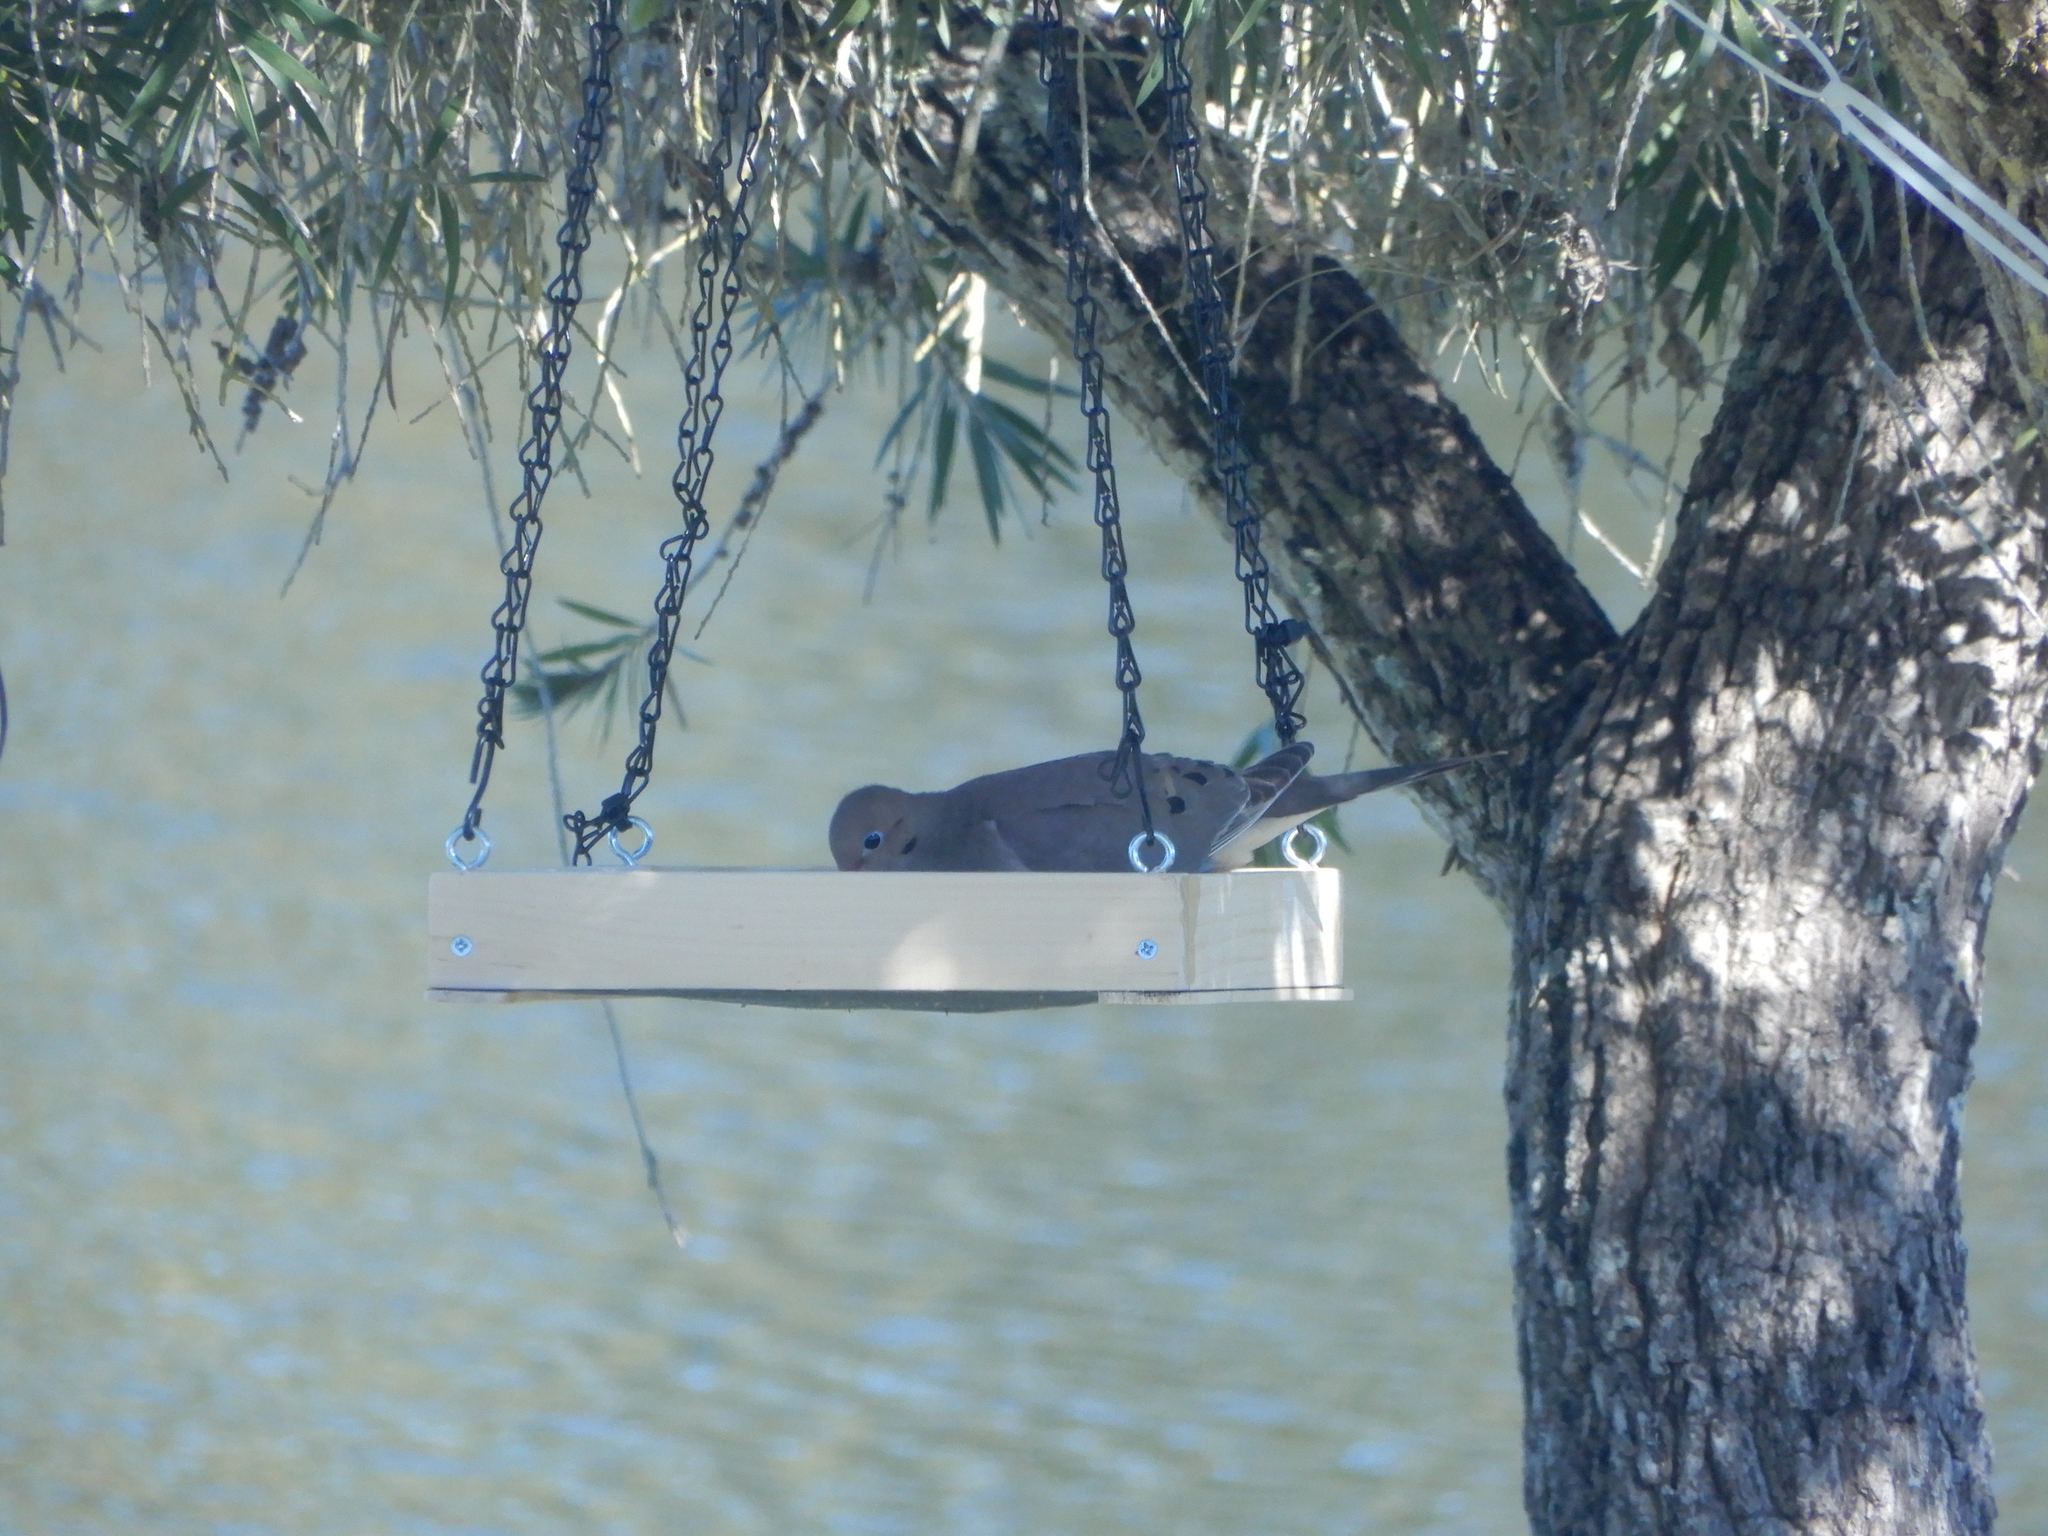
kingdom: Animalia
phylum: Chordata
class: Aves
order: Columbiformes
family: Columbidae
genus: Zenaida
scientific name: Zenaida macroura
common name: Mourning dove
